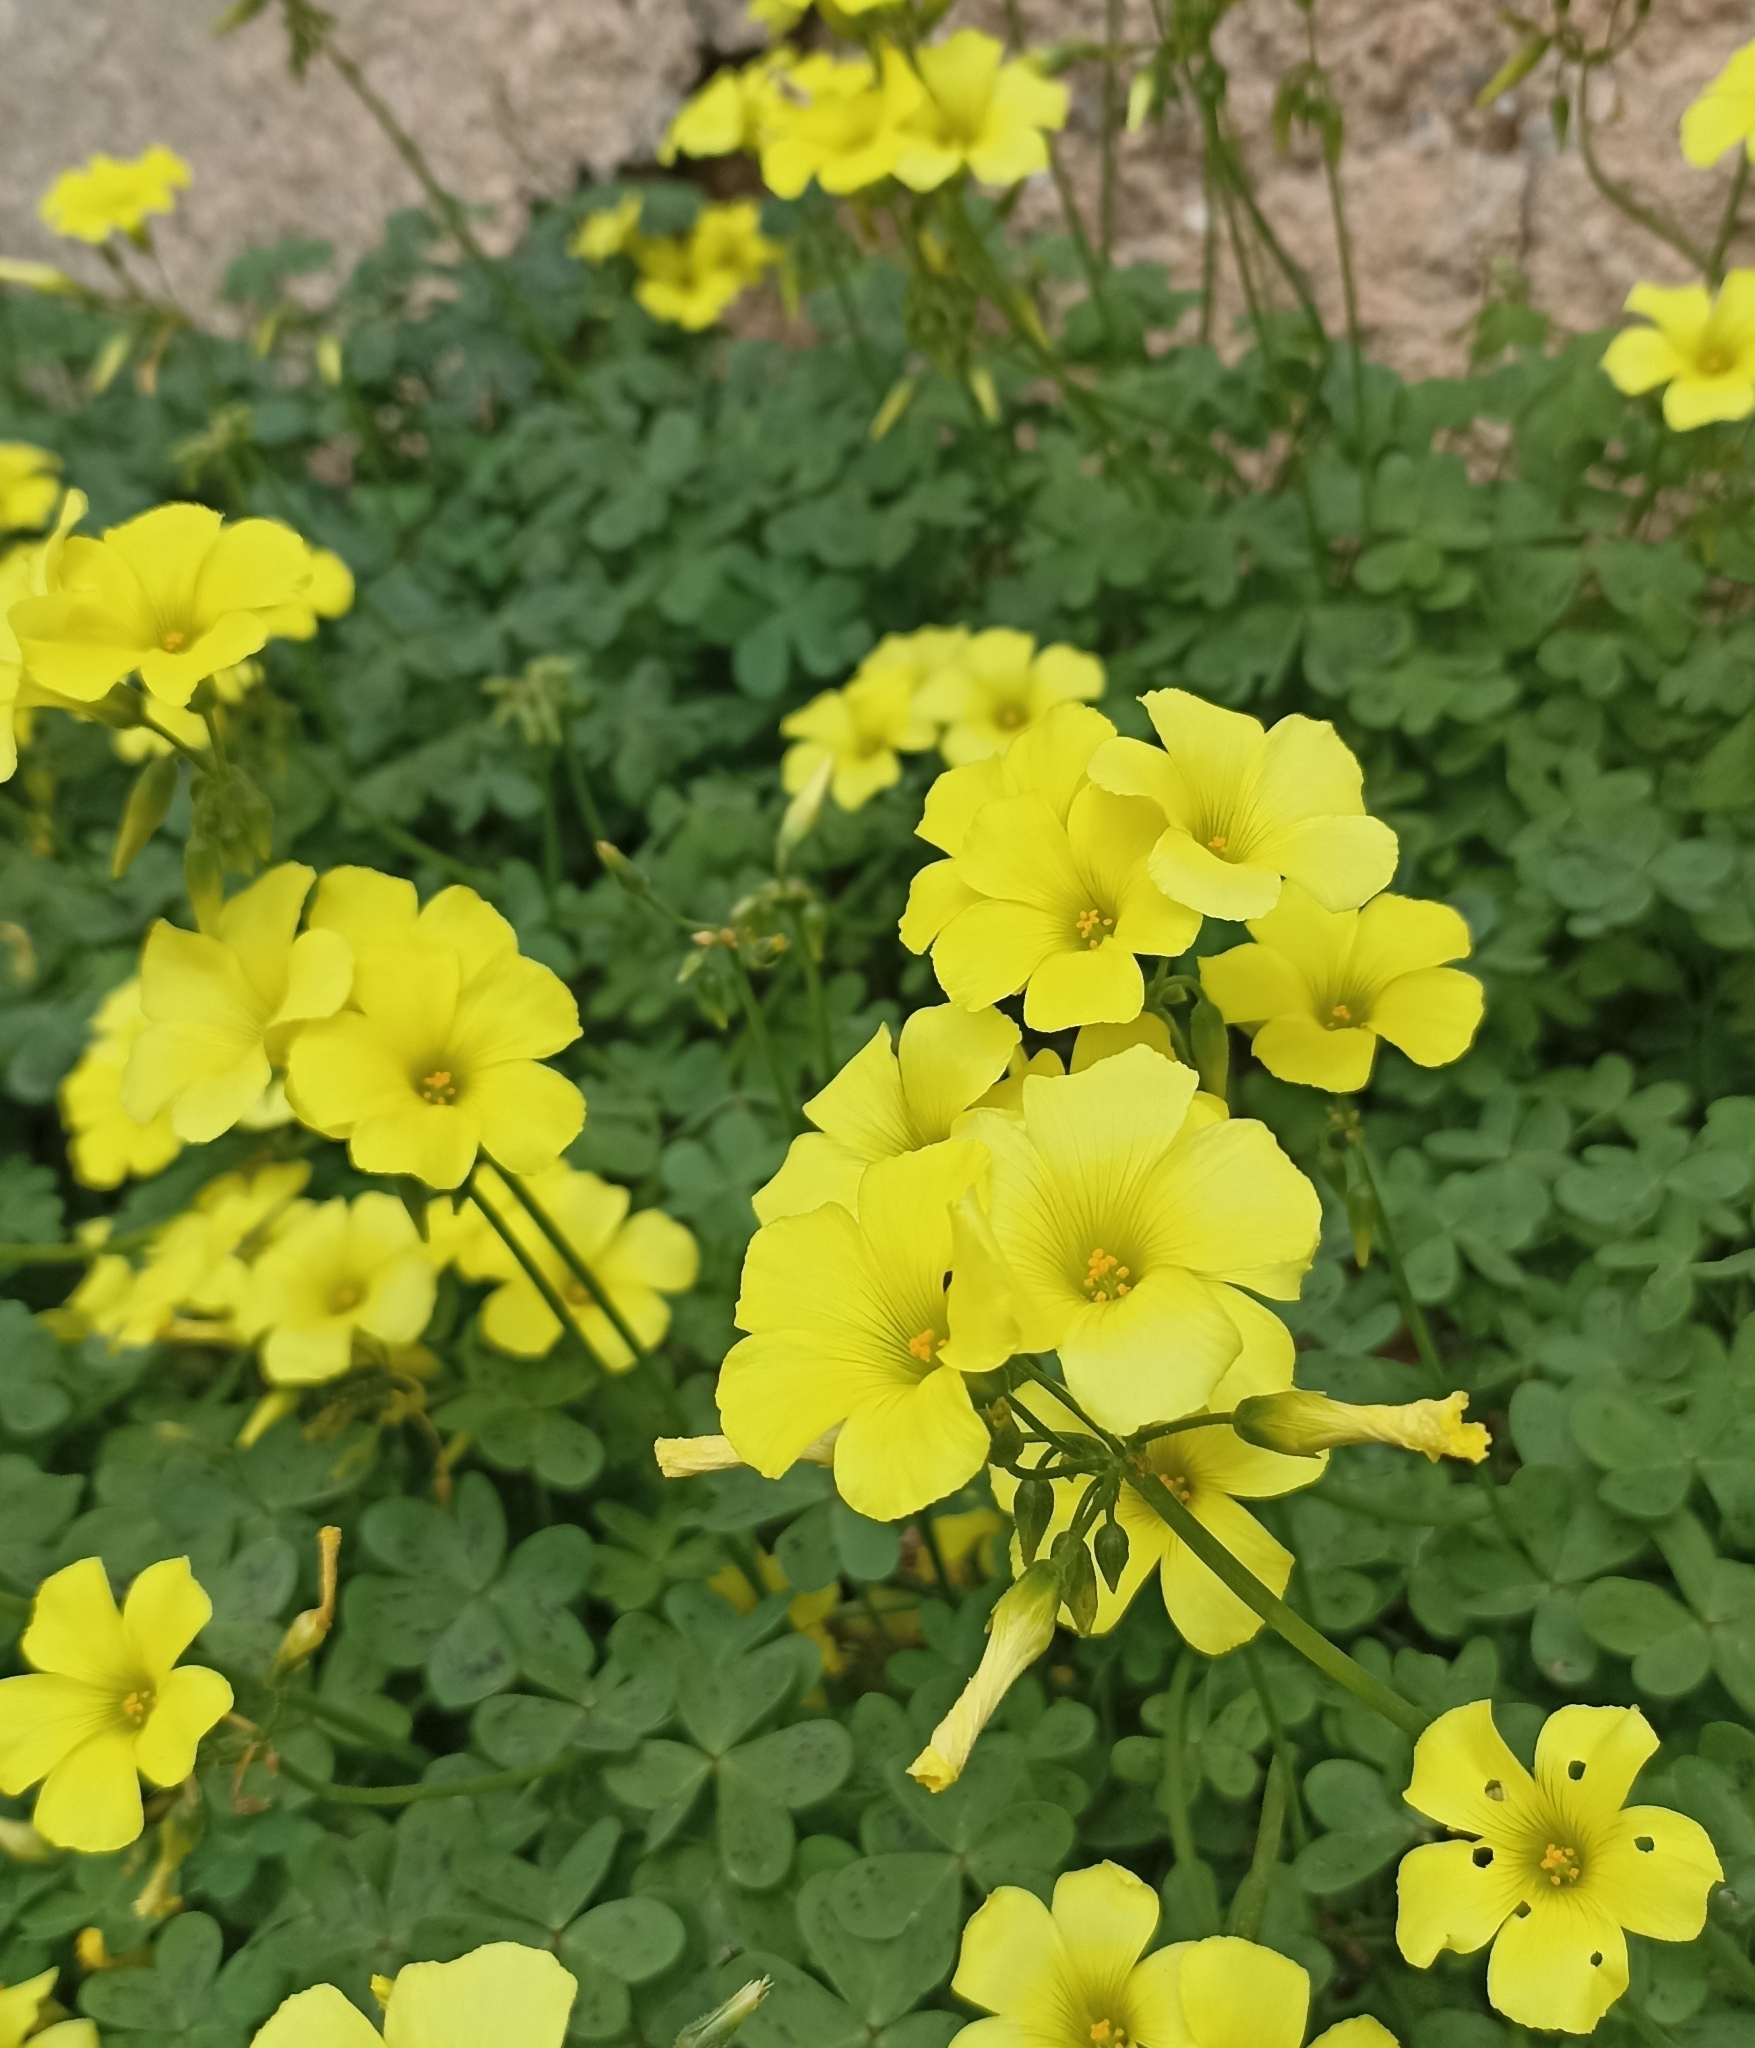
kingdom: Plantae
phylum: Tracheophyta
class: Magnoliopsida
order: Oxalidales
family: Oxalidaceae
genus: Oxalis
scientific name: Oxalis pes-caprae
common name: Bermuda-buttercup
